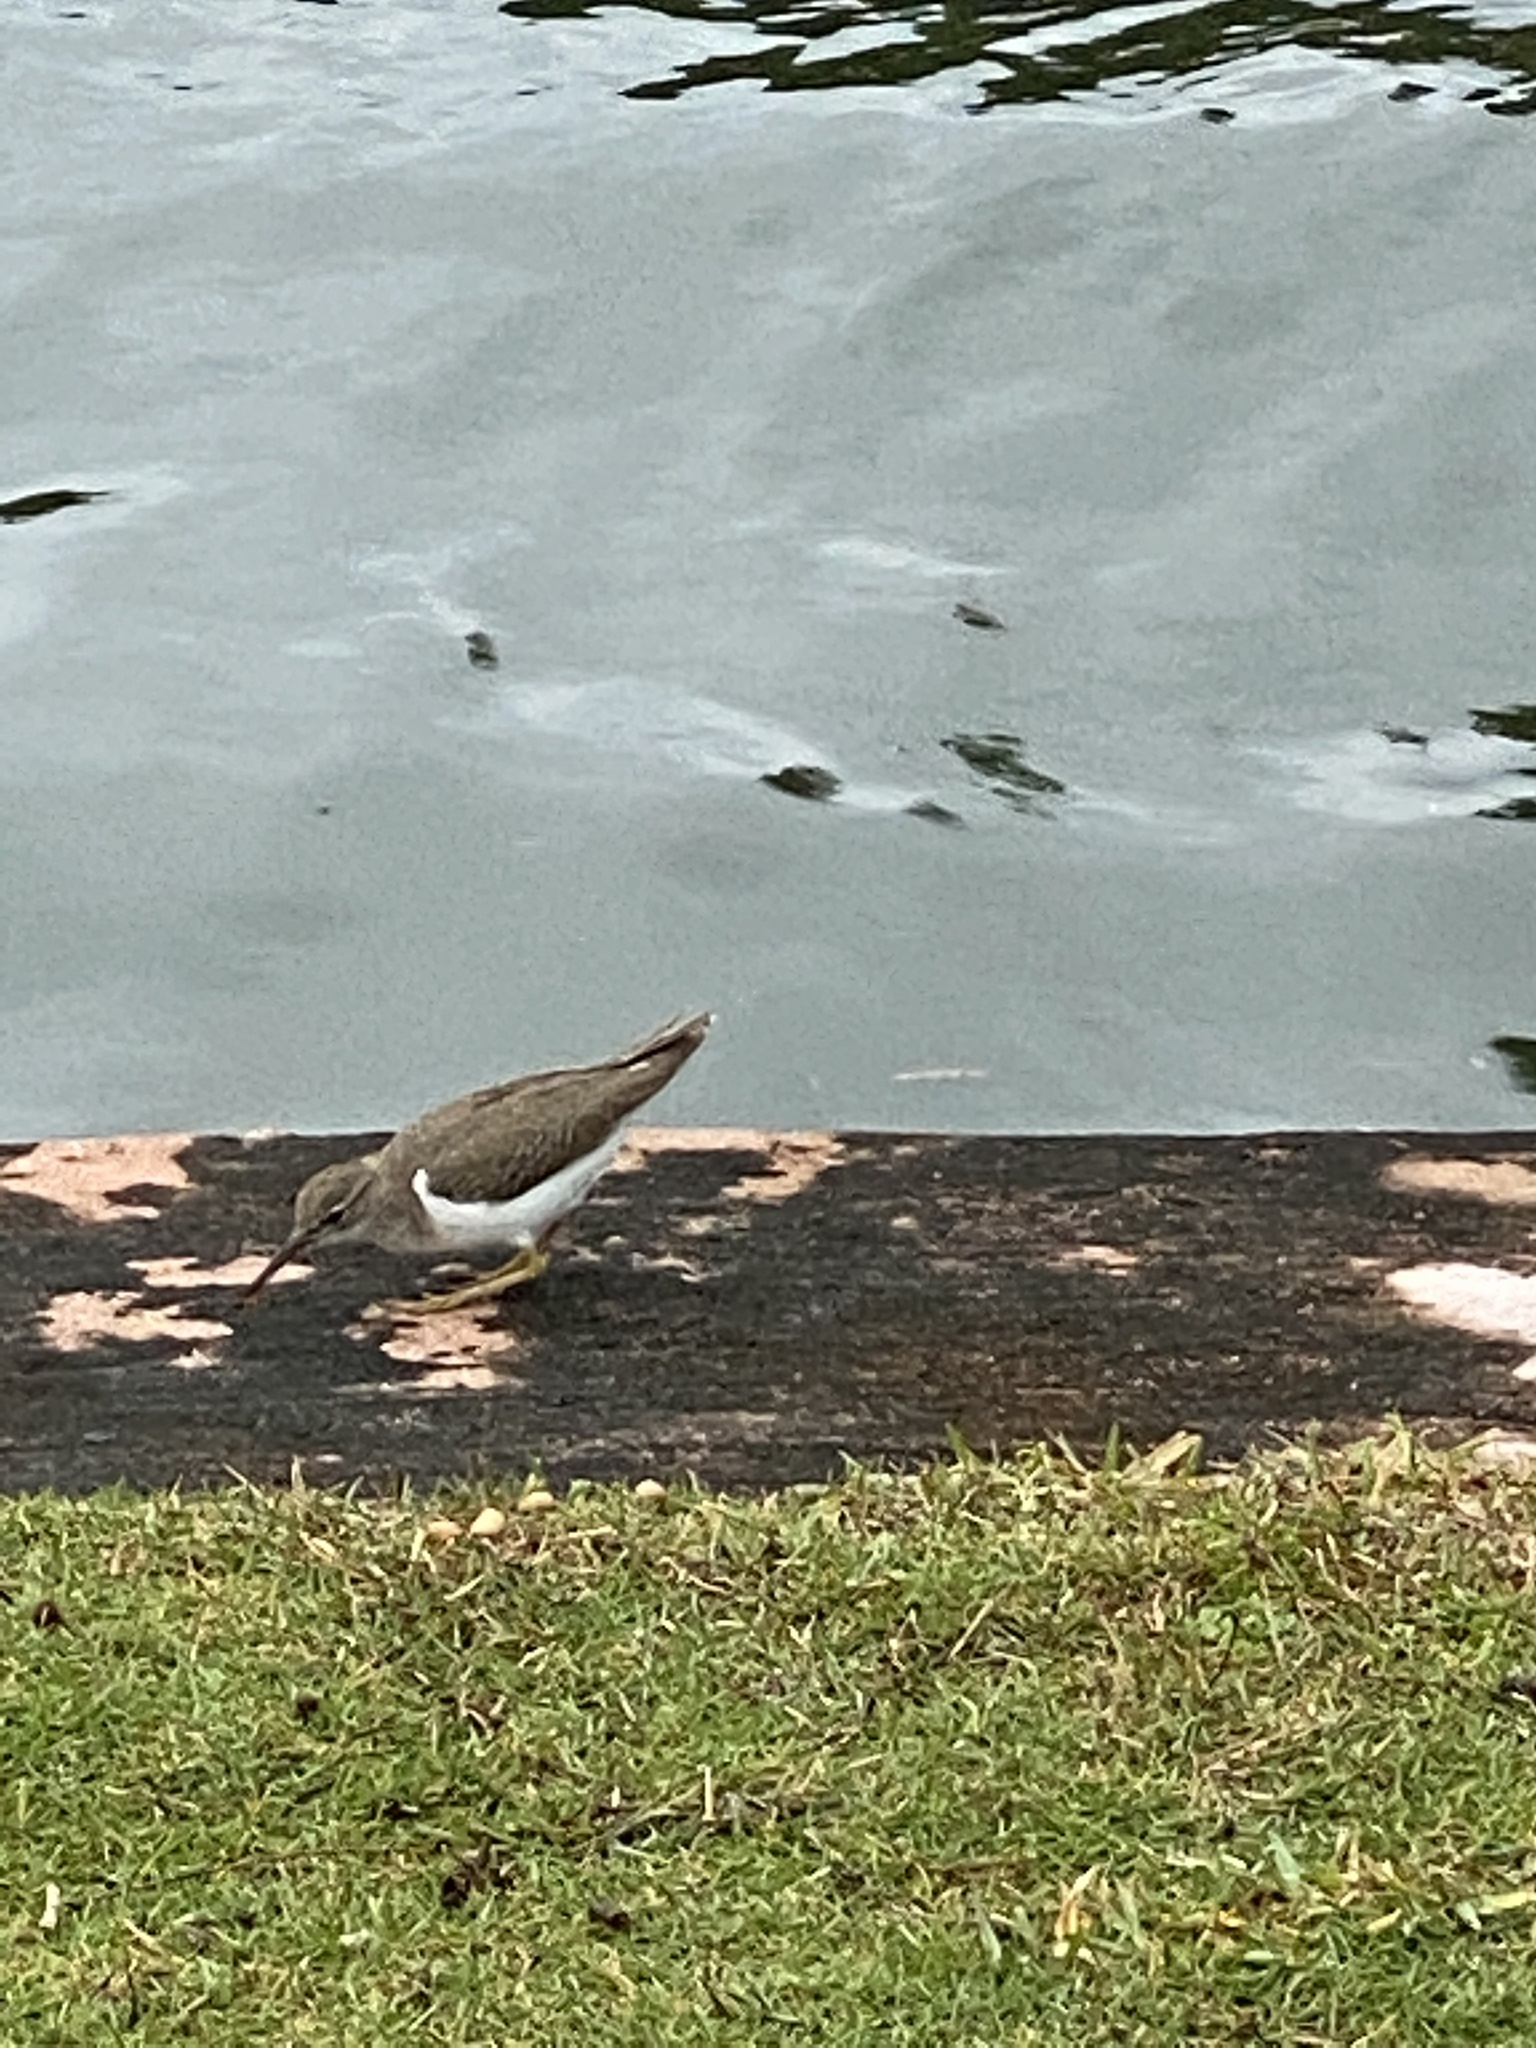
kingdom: Animalia
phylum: Chordata
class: Aves
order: Charadriiformes
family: Scolopacidae
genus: Actitis
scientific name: Actitis macularius
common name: Spotted sandpiper
